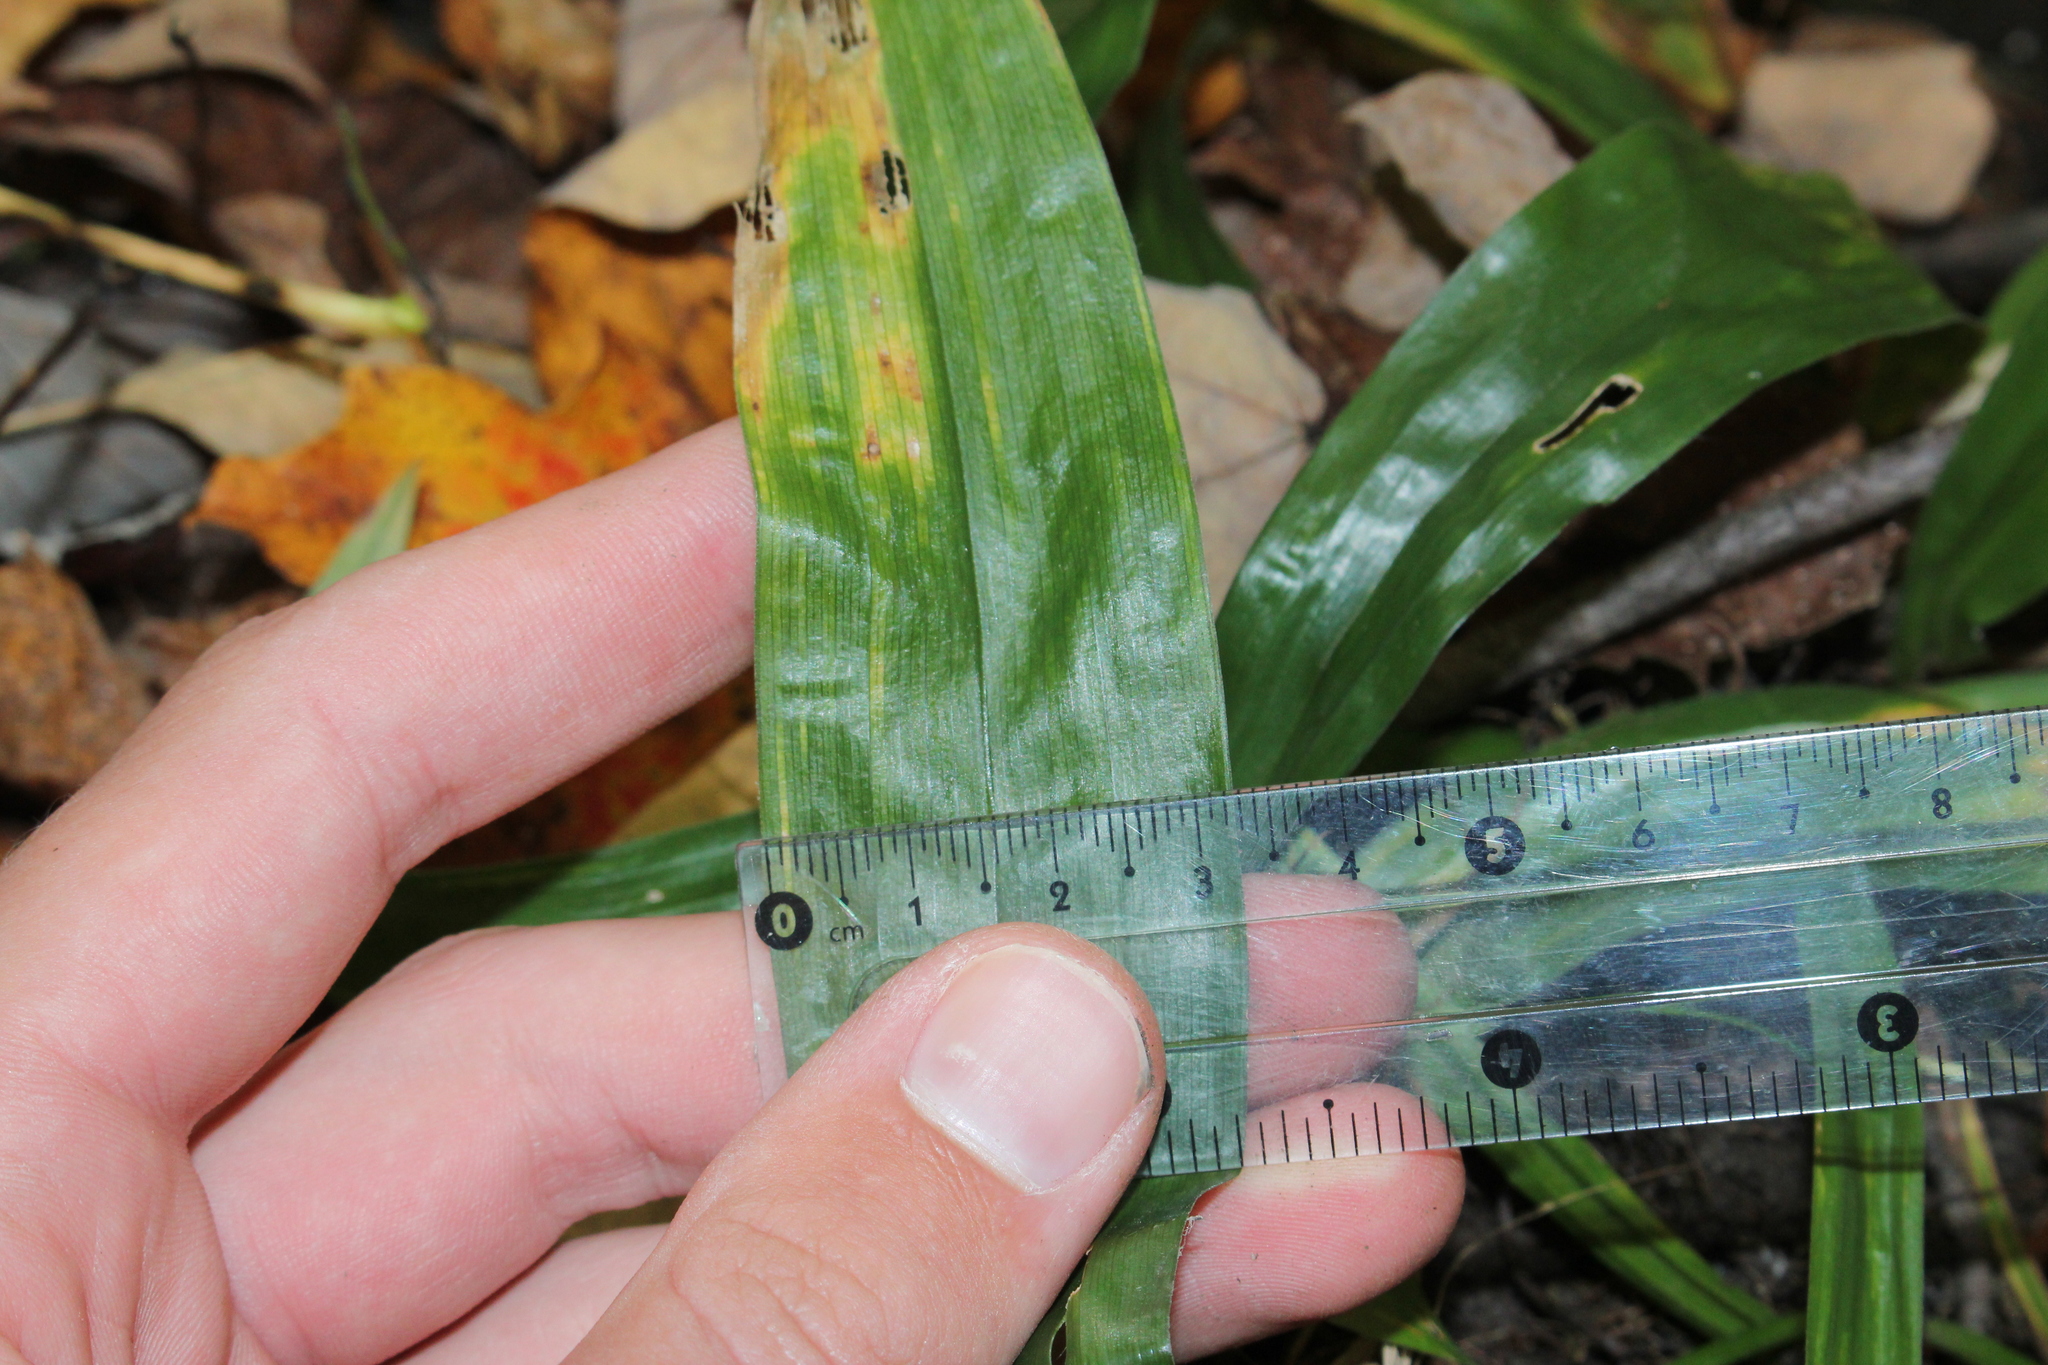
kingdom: Plantae
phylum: Tracheophyta
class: Liliopsida
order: Poales
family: Cyperaceae
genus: Carex
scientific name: Carex albursina
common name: Blunt-scale wood sedge
